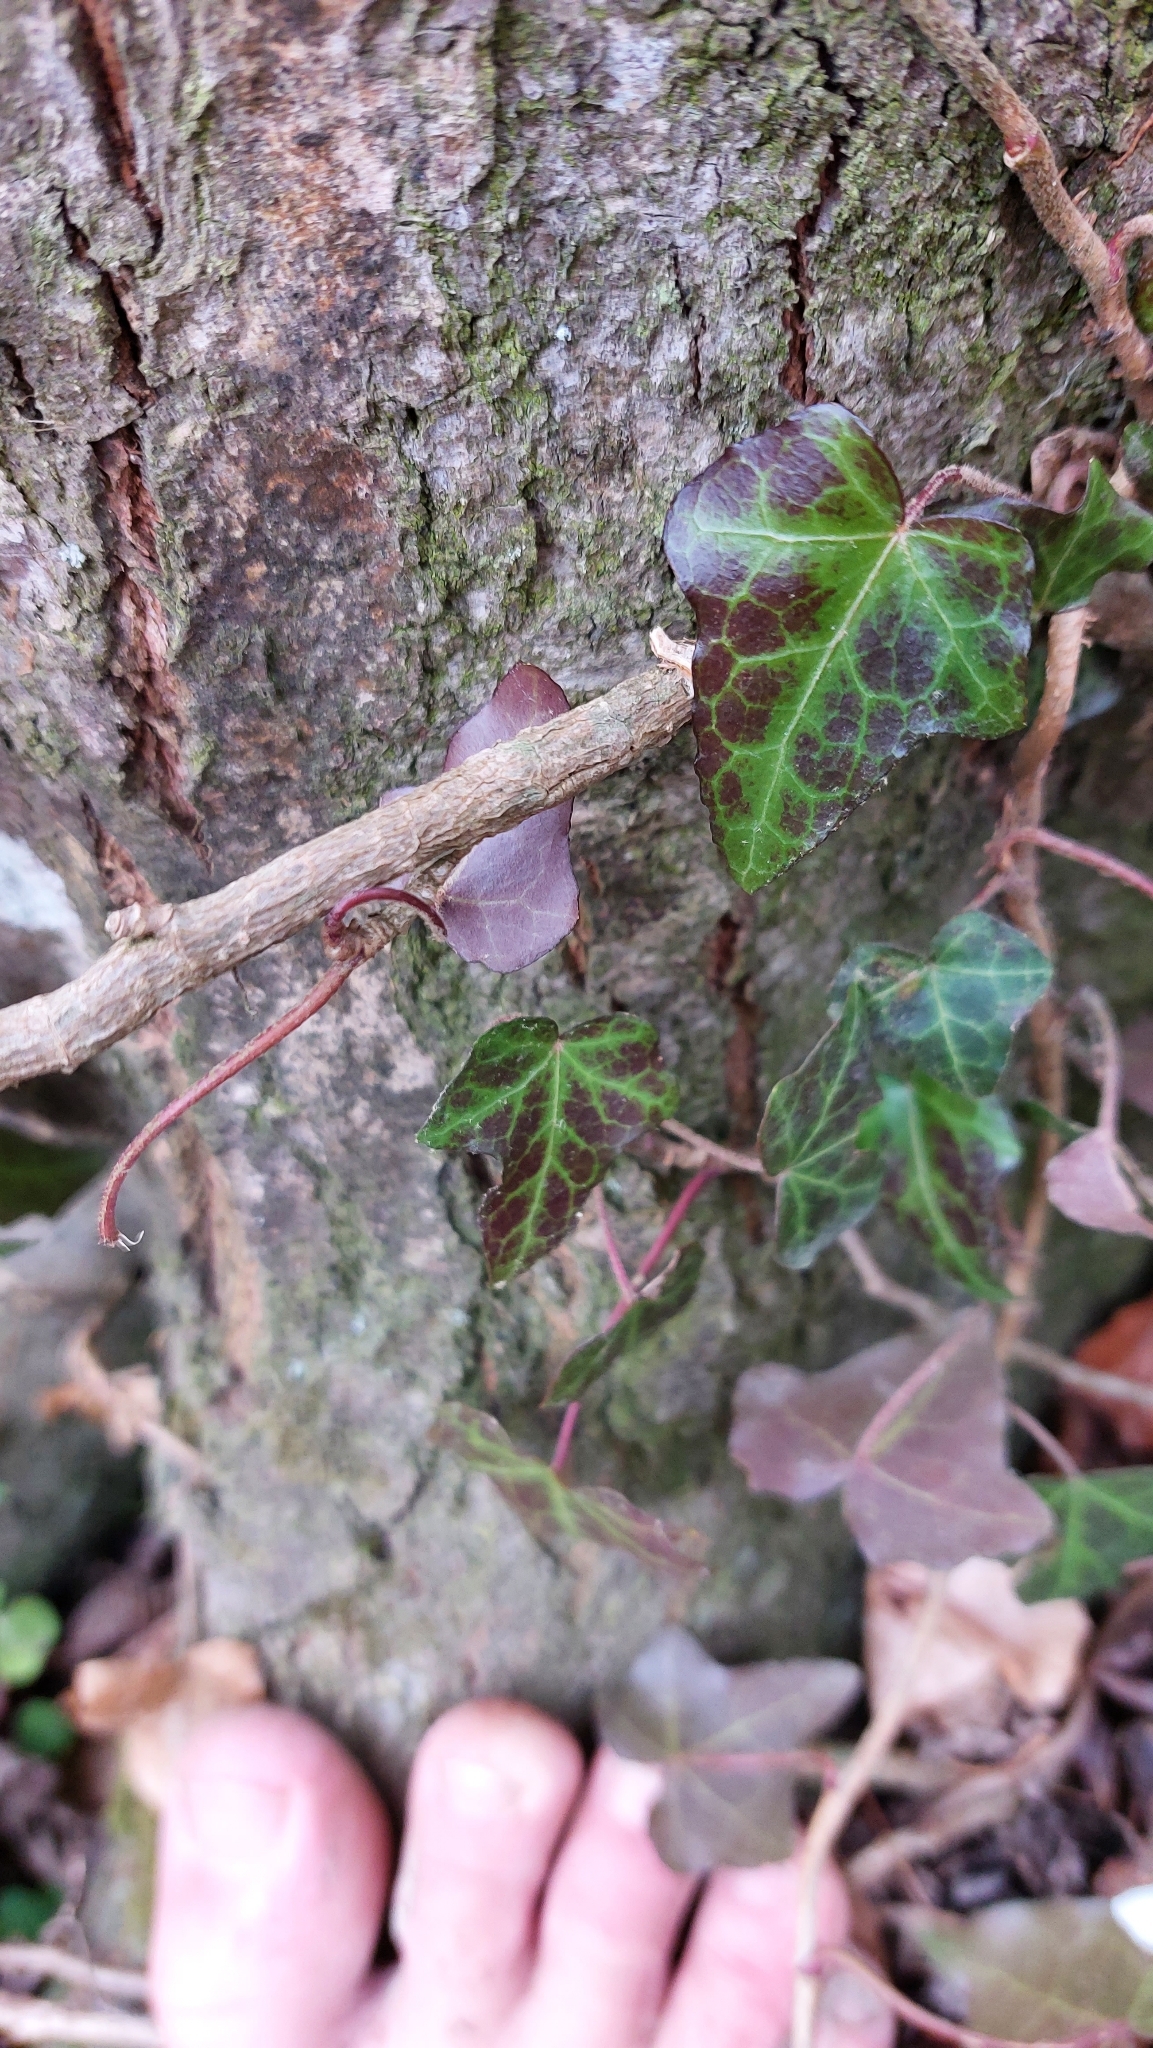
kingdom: Plantae
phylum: Tracheophyta
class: Magnoliopsida
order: Apiales
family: Araliaceae
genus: Hedera
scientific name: Hedera helix
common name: Ivy
